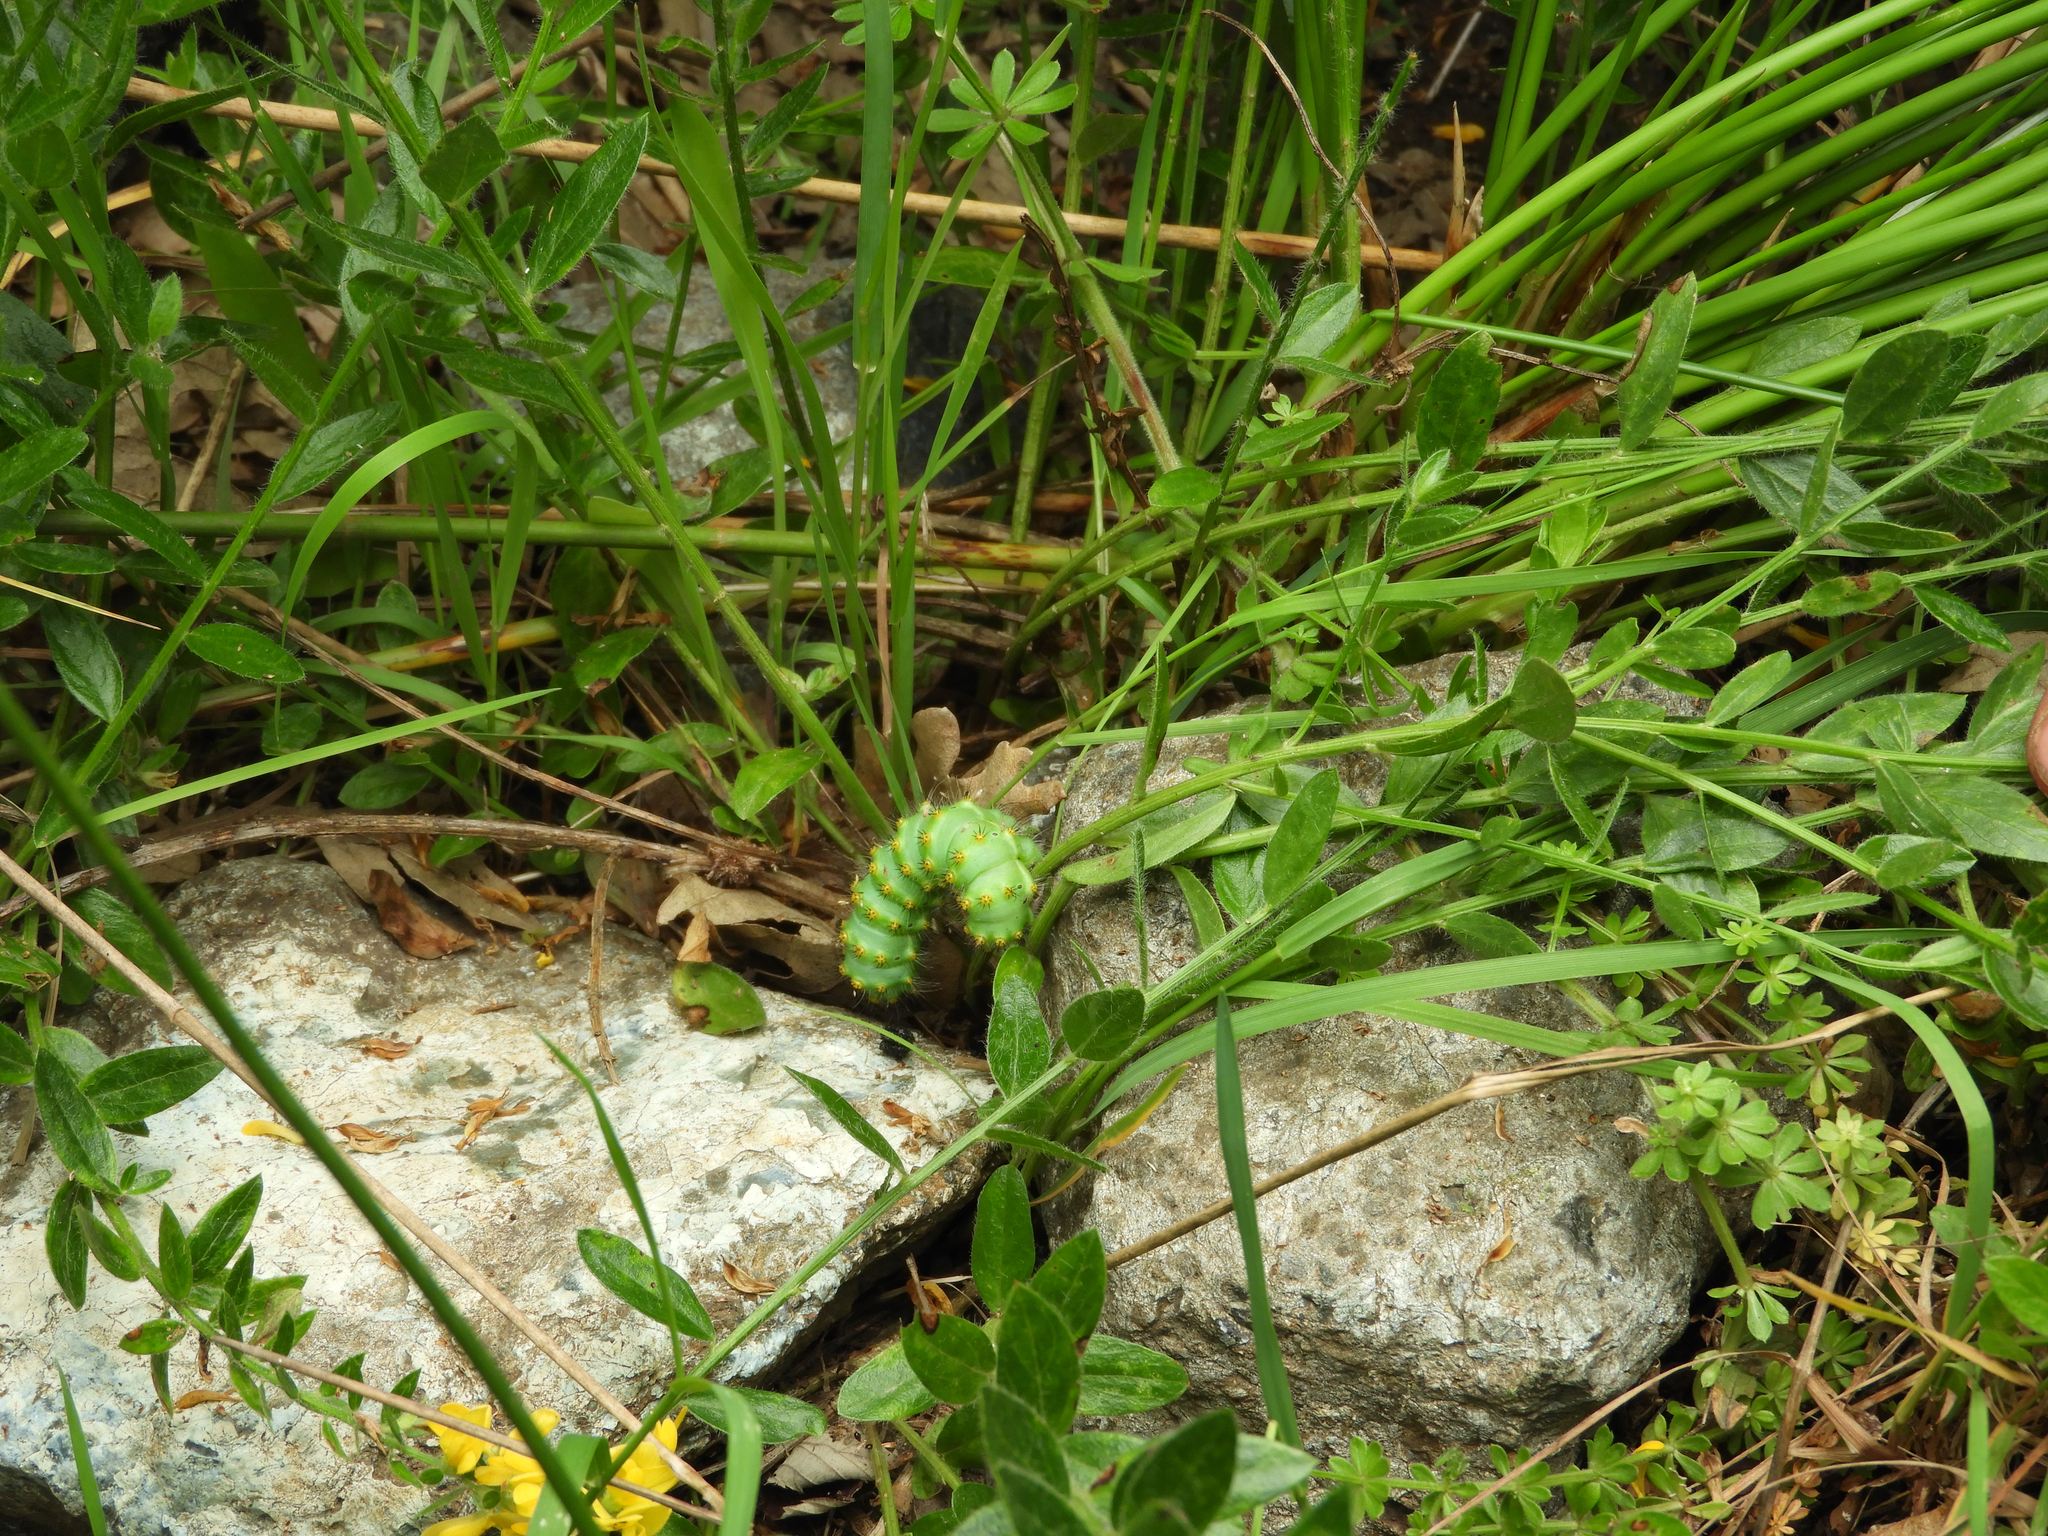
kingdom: Animalia
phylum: Arthropoda
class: Insecta
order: Lepidoptera
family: Saturniidae
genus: Saturnia
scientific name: Saturnia pavoniella
